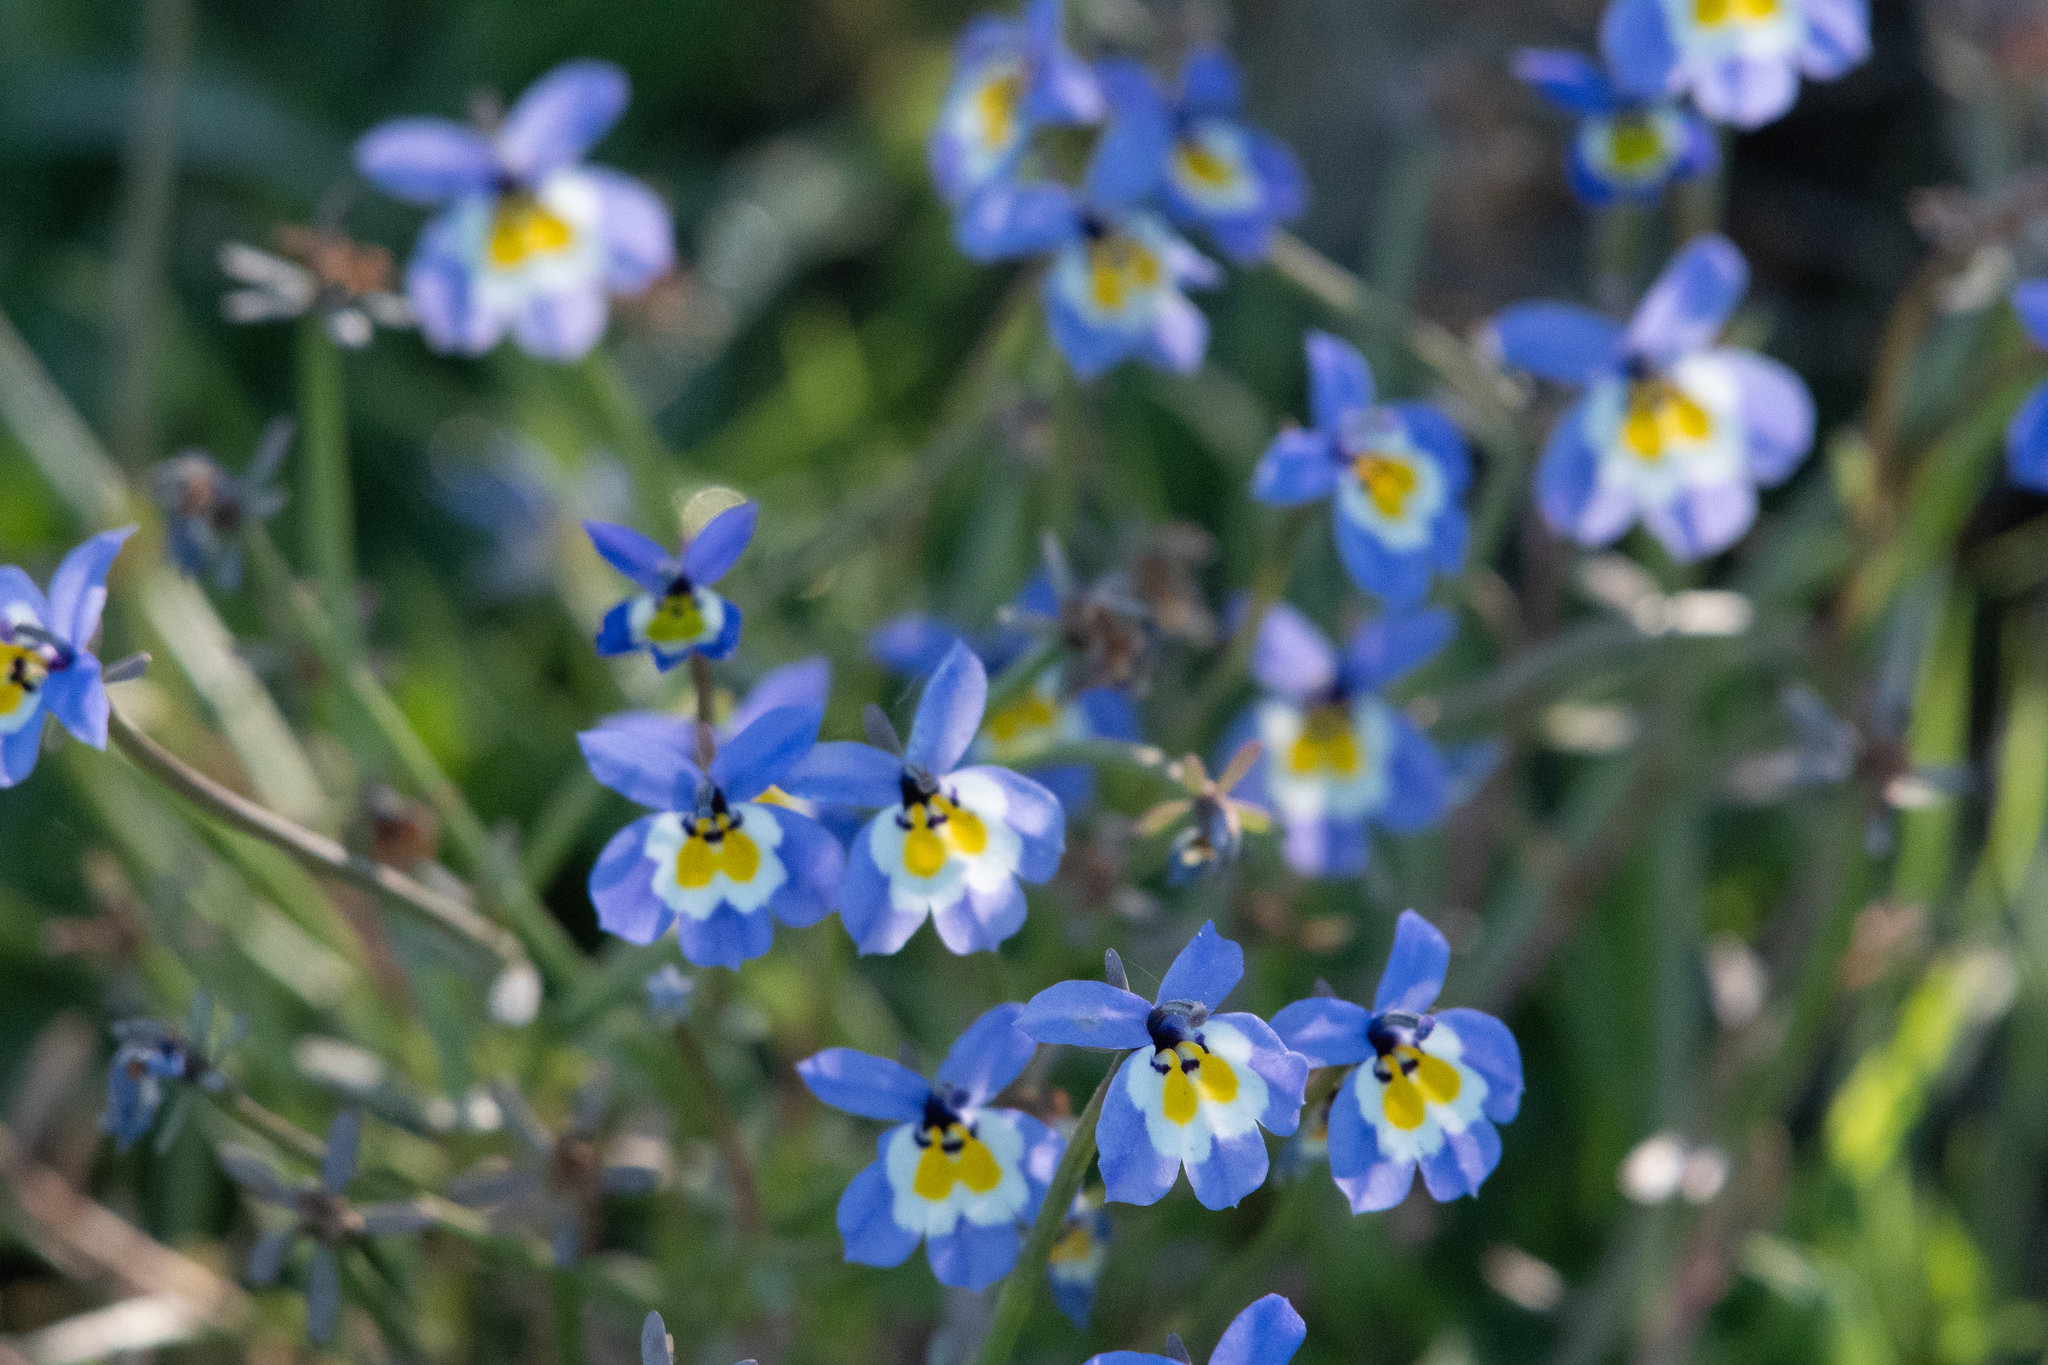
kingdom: Plantae
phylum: Tracheophyta
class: Magnoliopsida
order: Asterales
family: Campanulaceae
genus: Downingia
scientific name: Downingia pulchella
